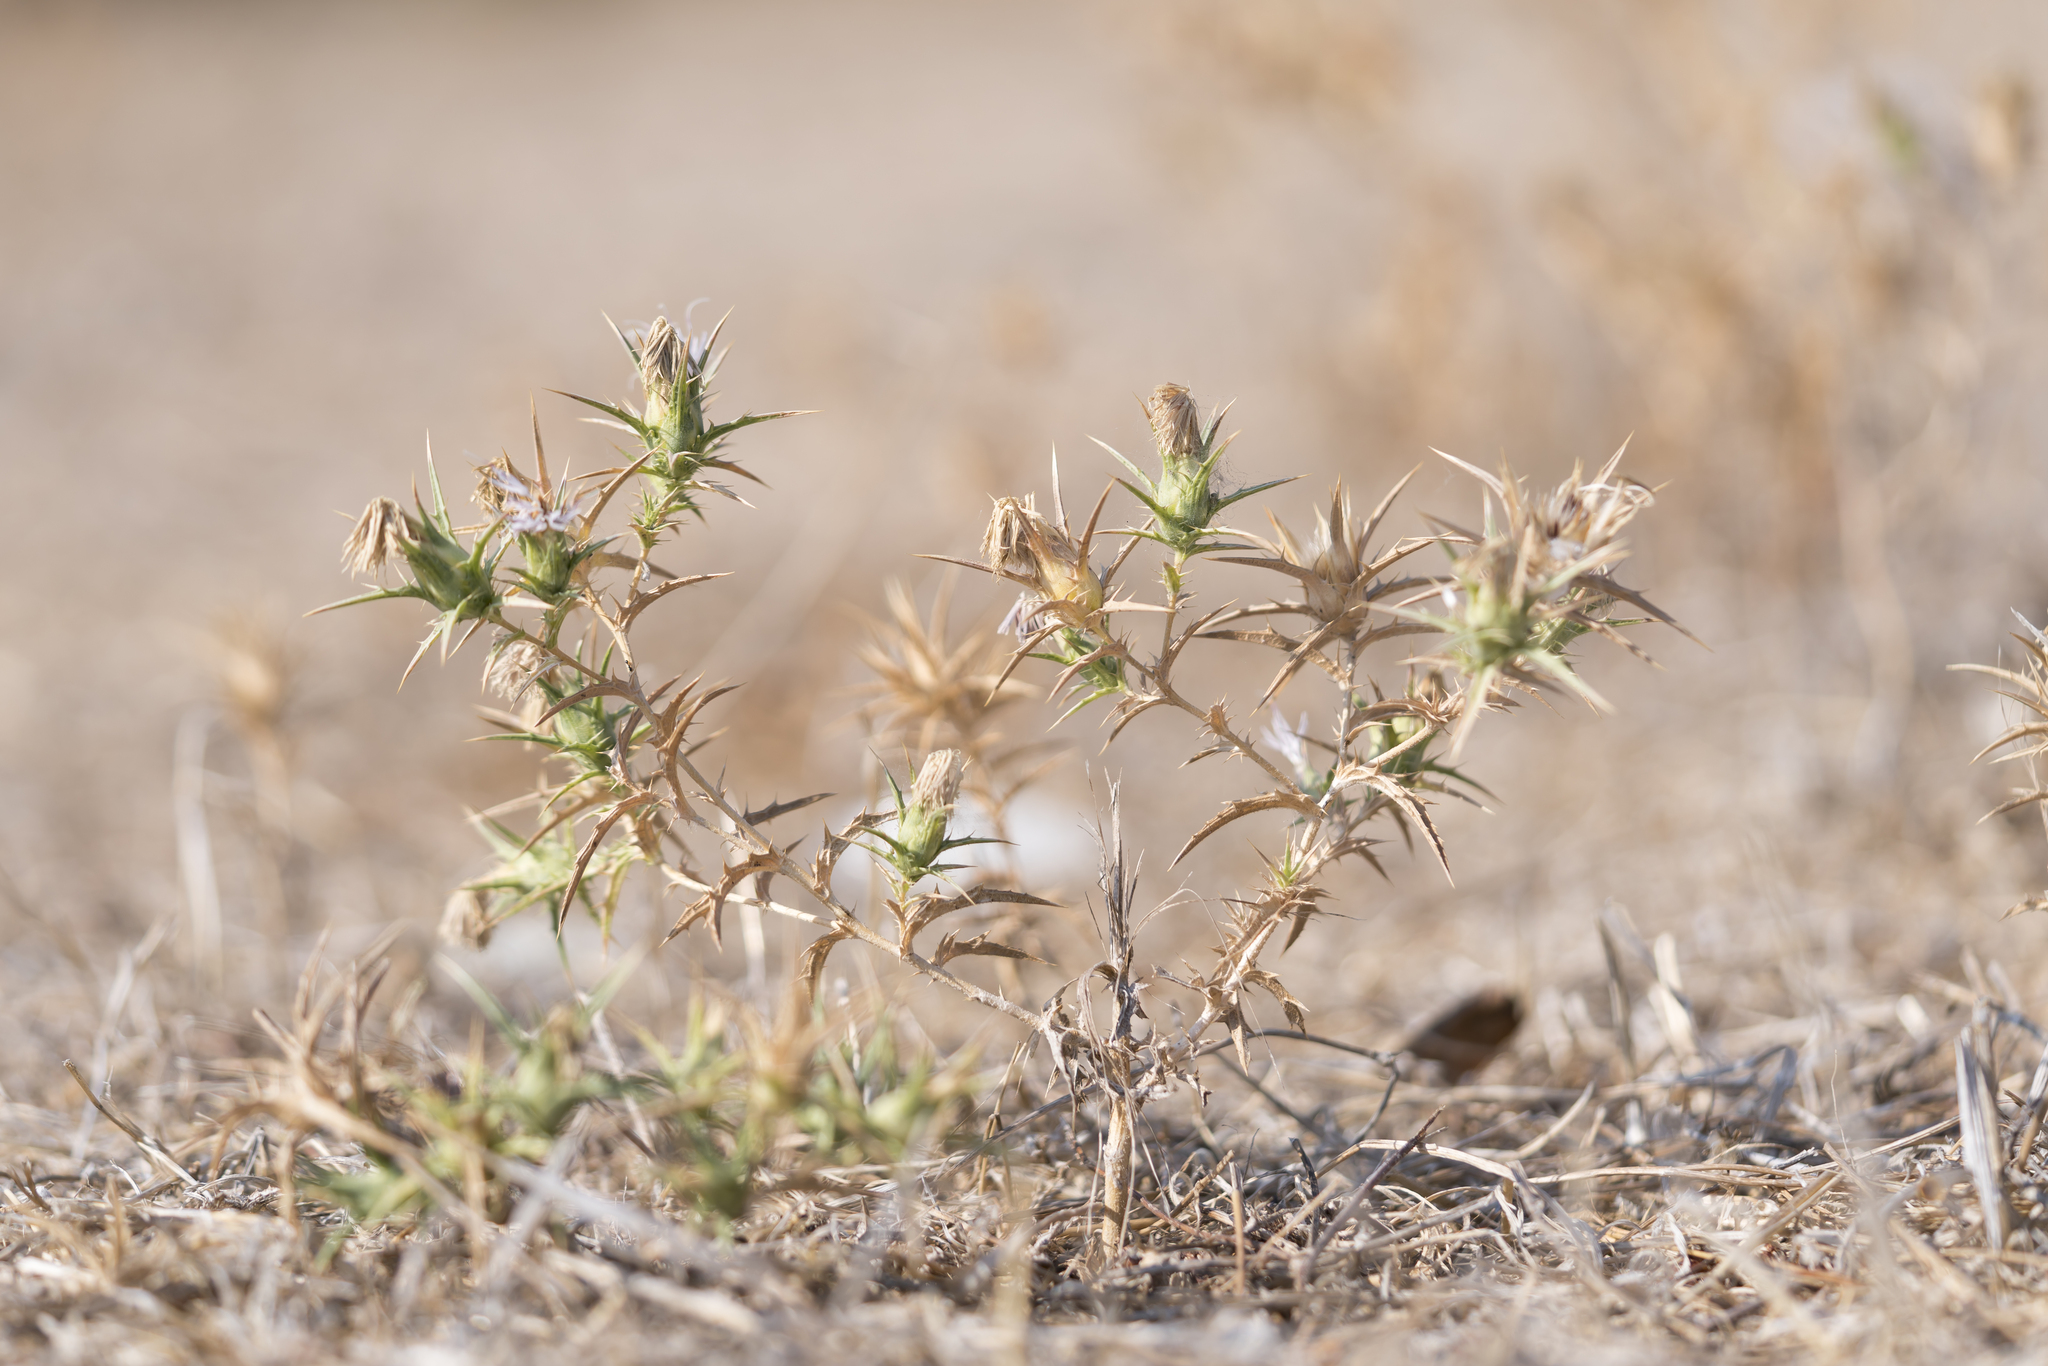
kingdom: Plantae
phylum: Tracheophyta
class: Magnoliopsida
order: Asterales
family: Asteraceae
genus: Carthamus
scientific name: Carthamus boissieri
